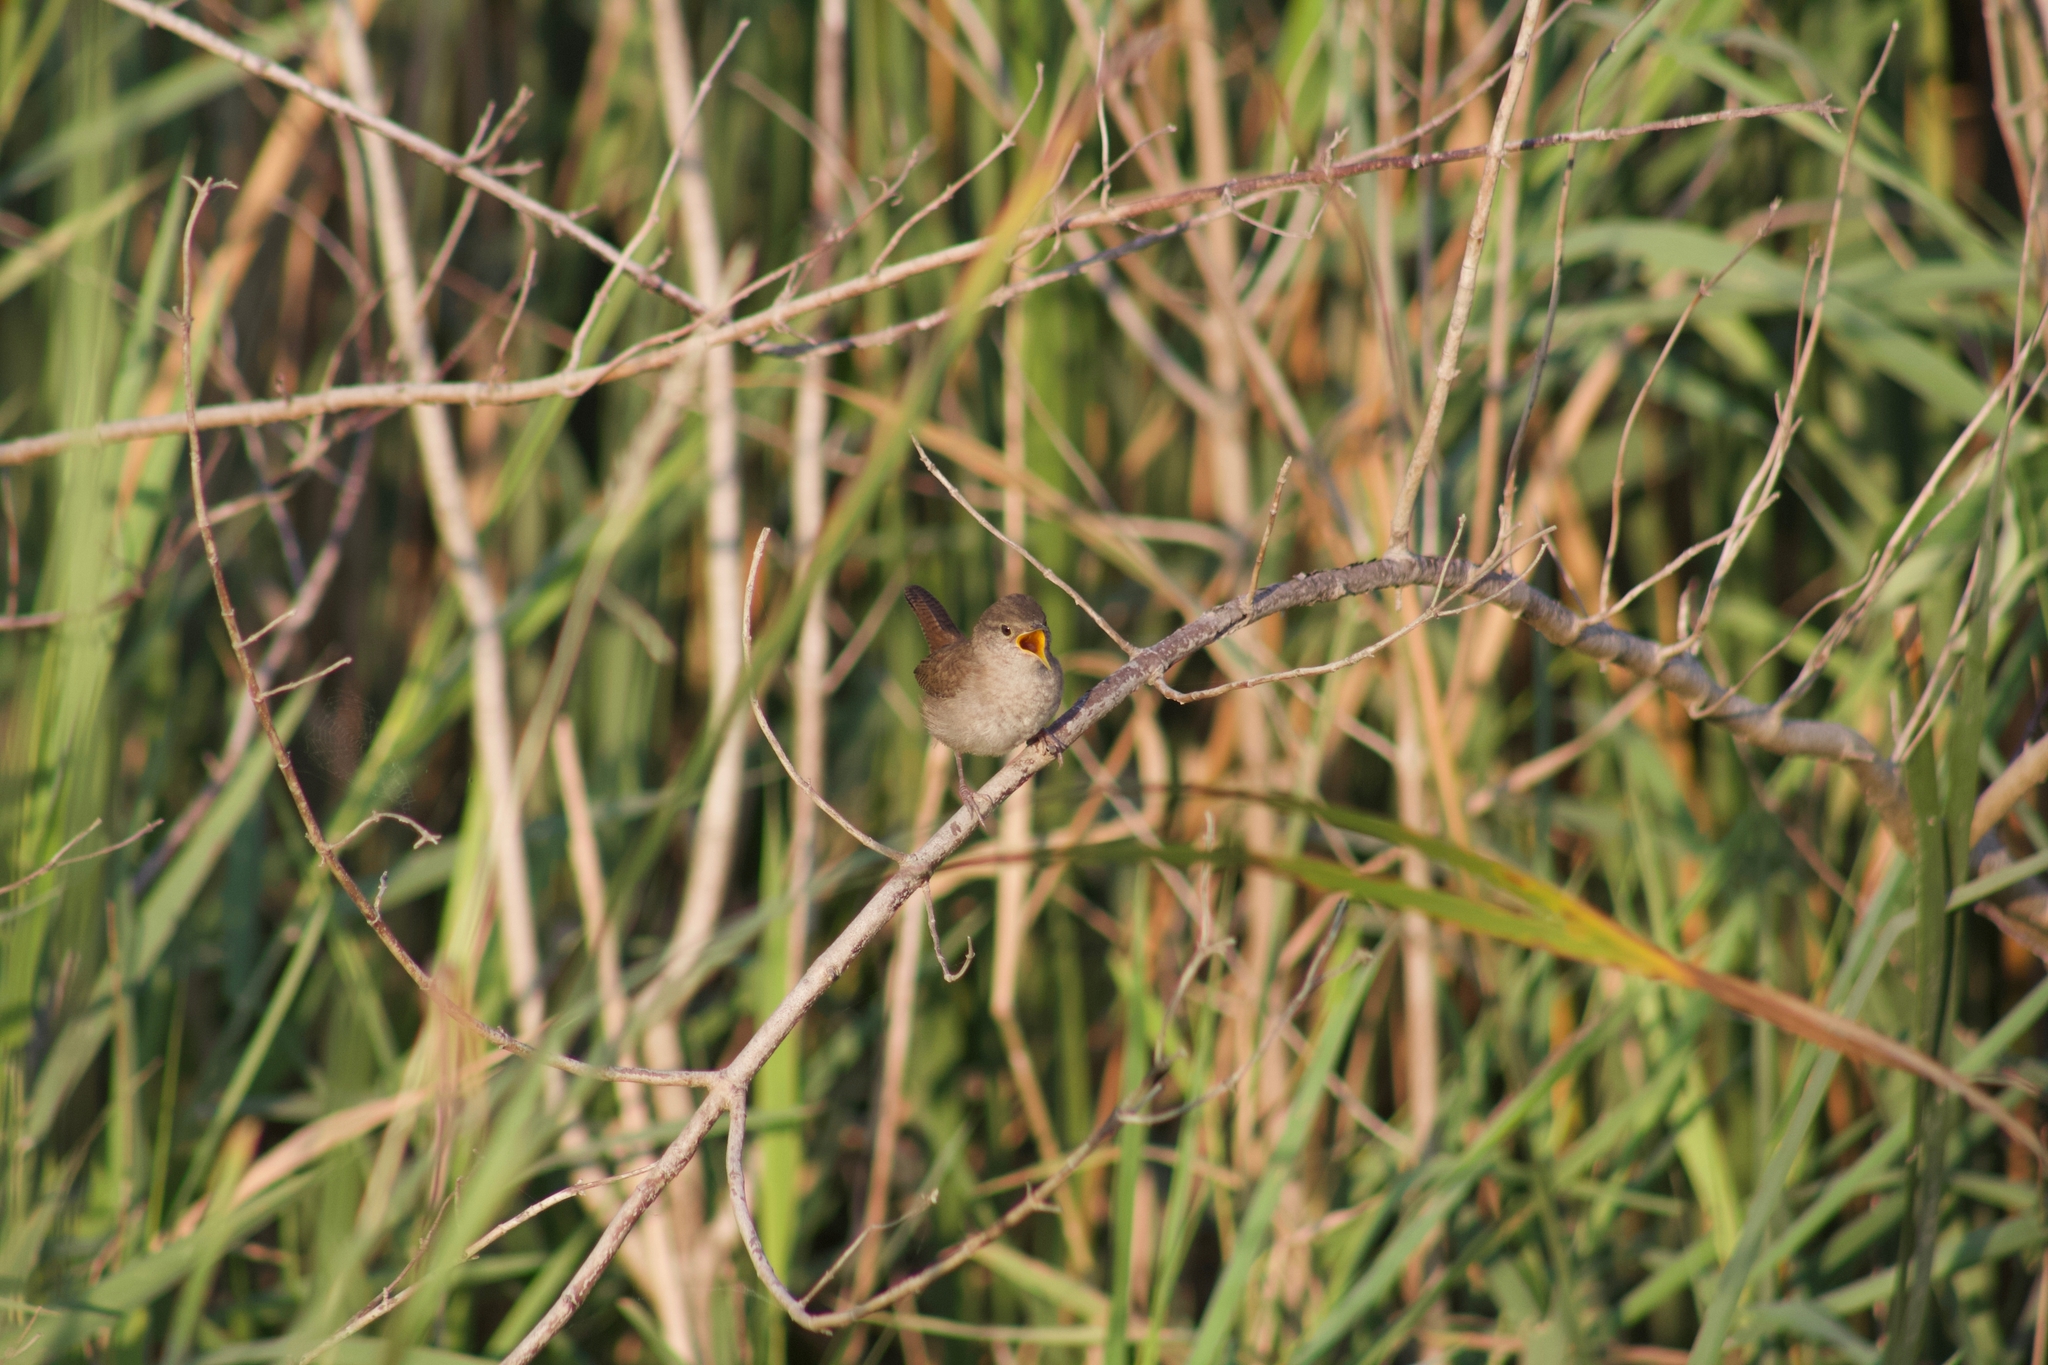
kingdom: Animalia
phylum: Chordata
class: Aves
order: Passeriformes
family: Troglodytidae
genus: Cistothorus
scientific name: Cistothorus platensis
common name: Sedge wren
